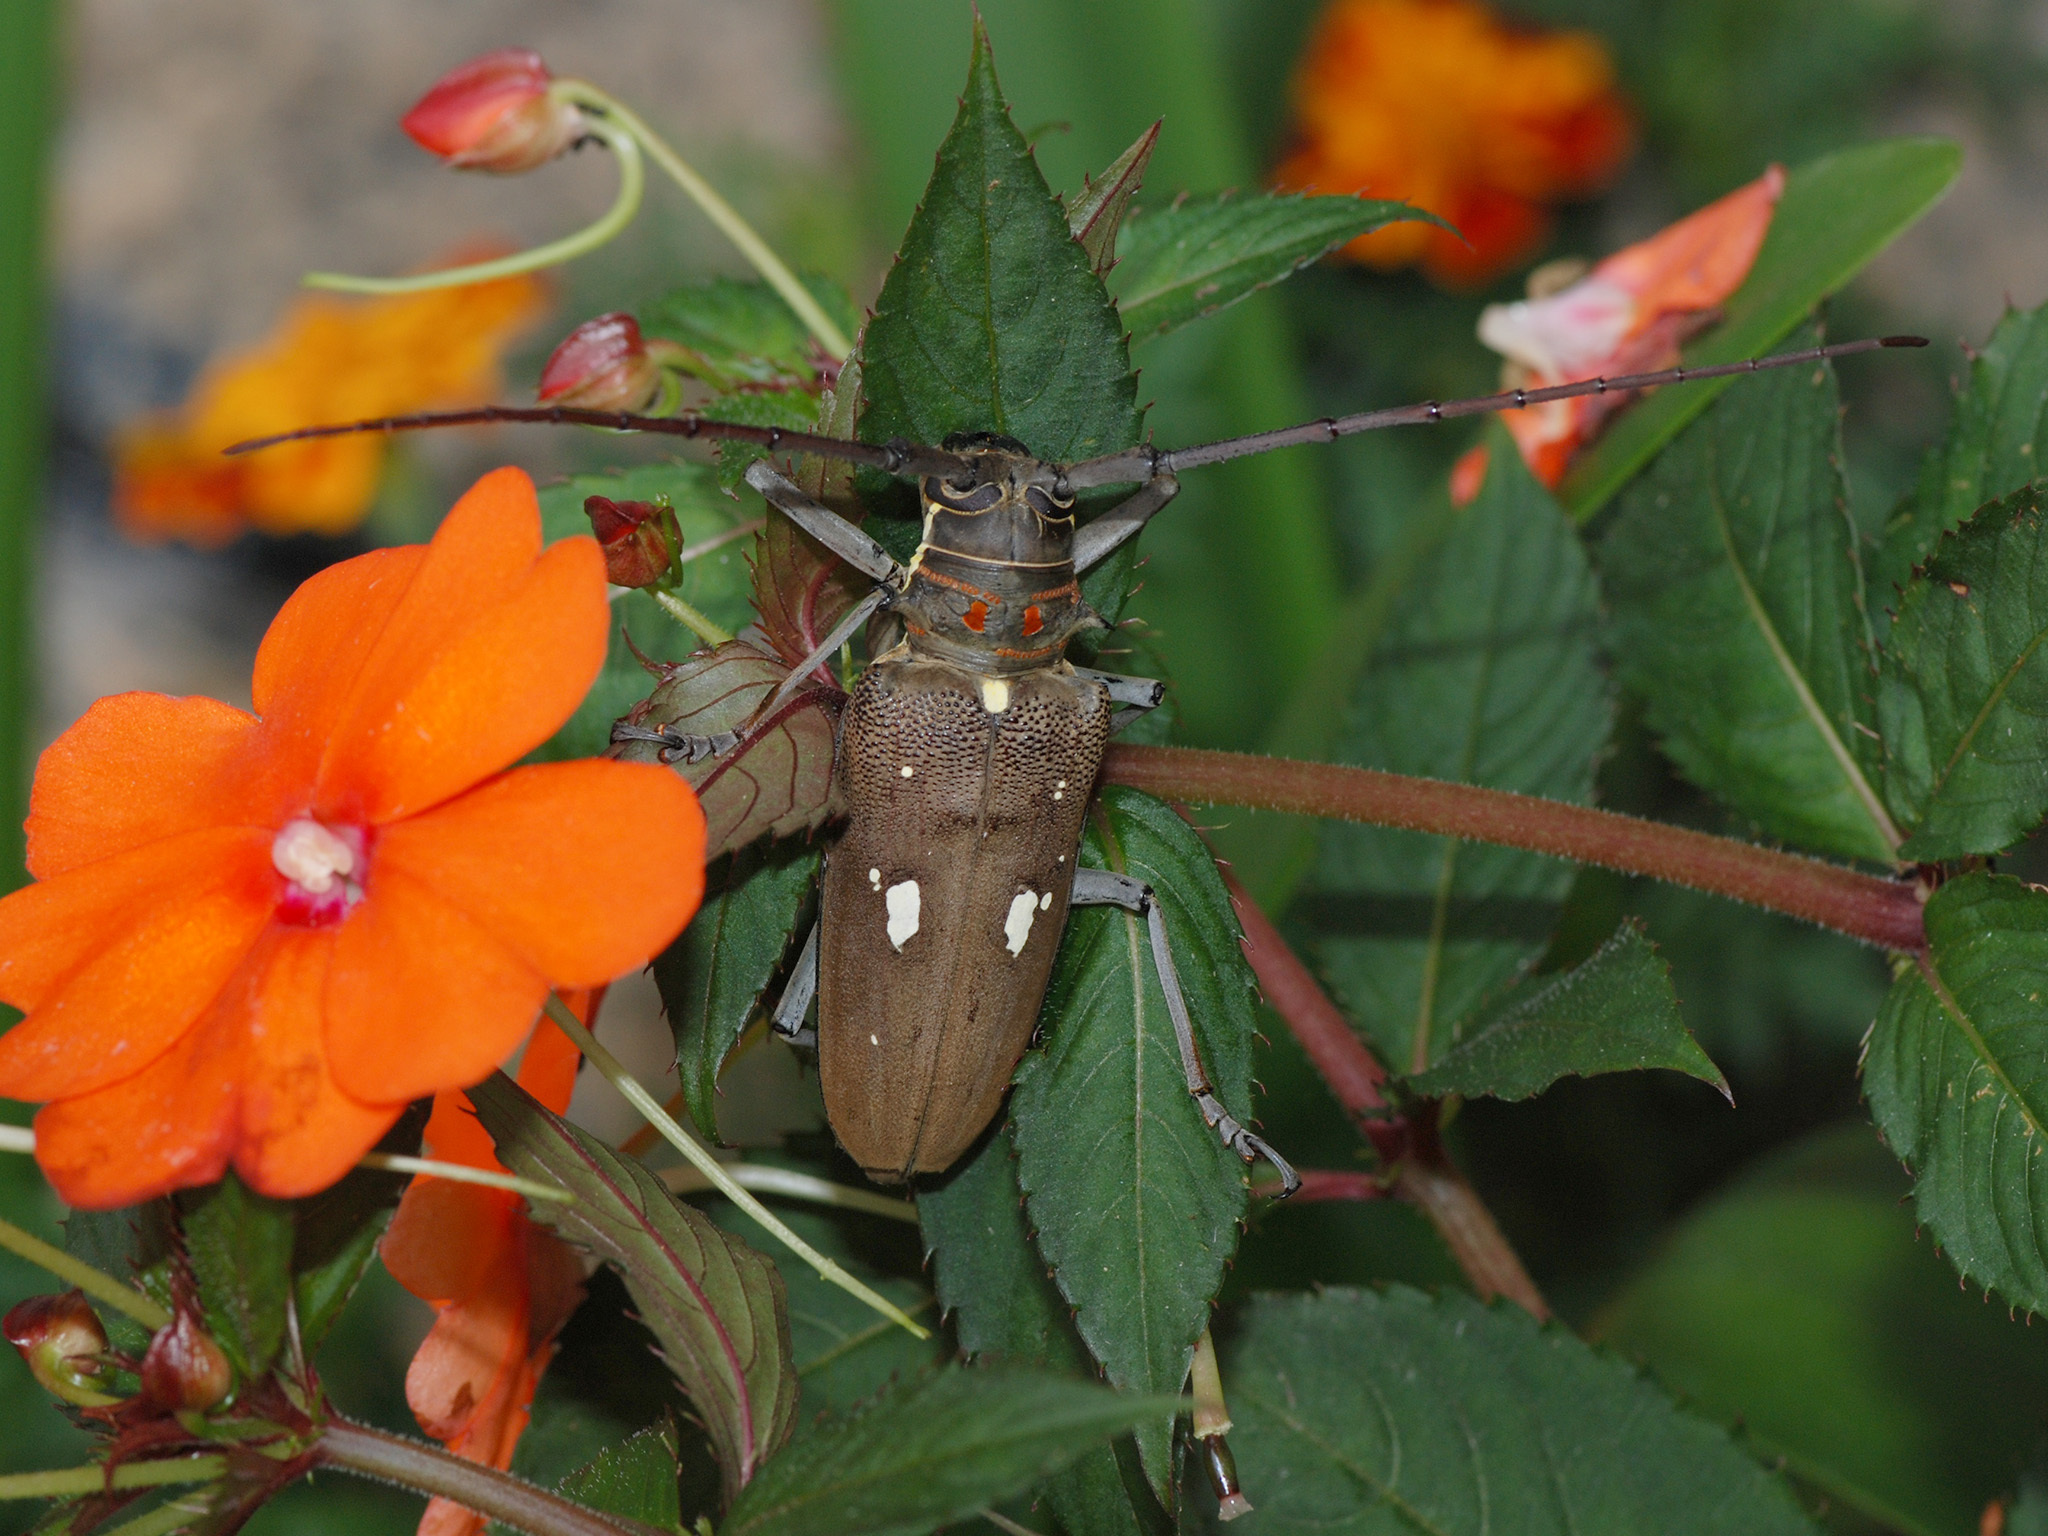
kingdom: Animalia
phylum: Arthropoda
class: Insecta
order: Coleoptera
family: Cerambycidae
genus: Batocera
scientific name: Batocera thomsonii
